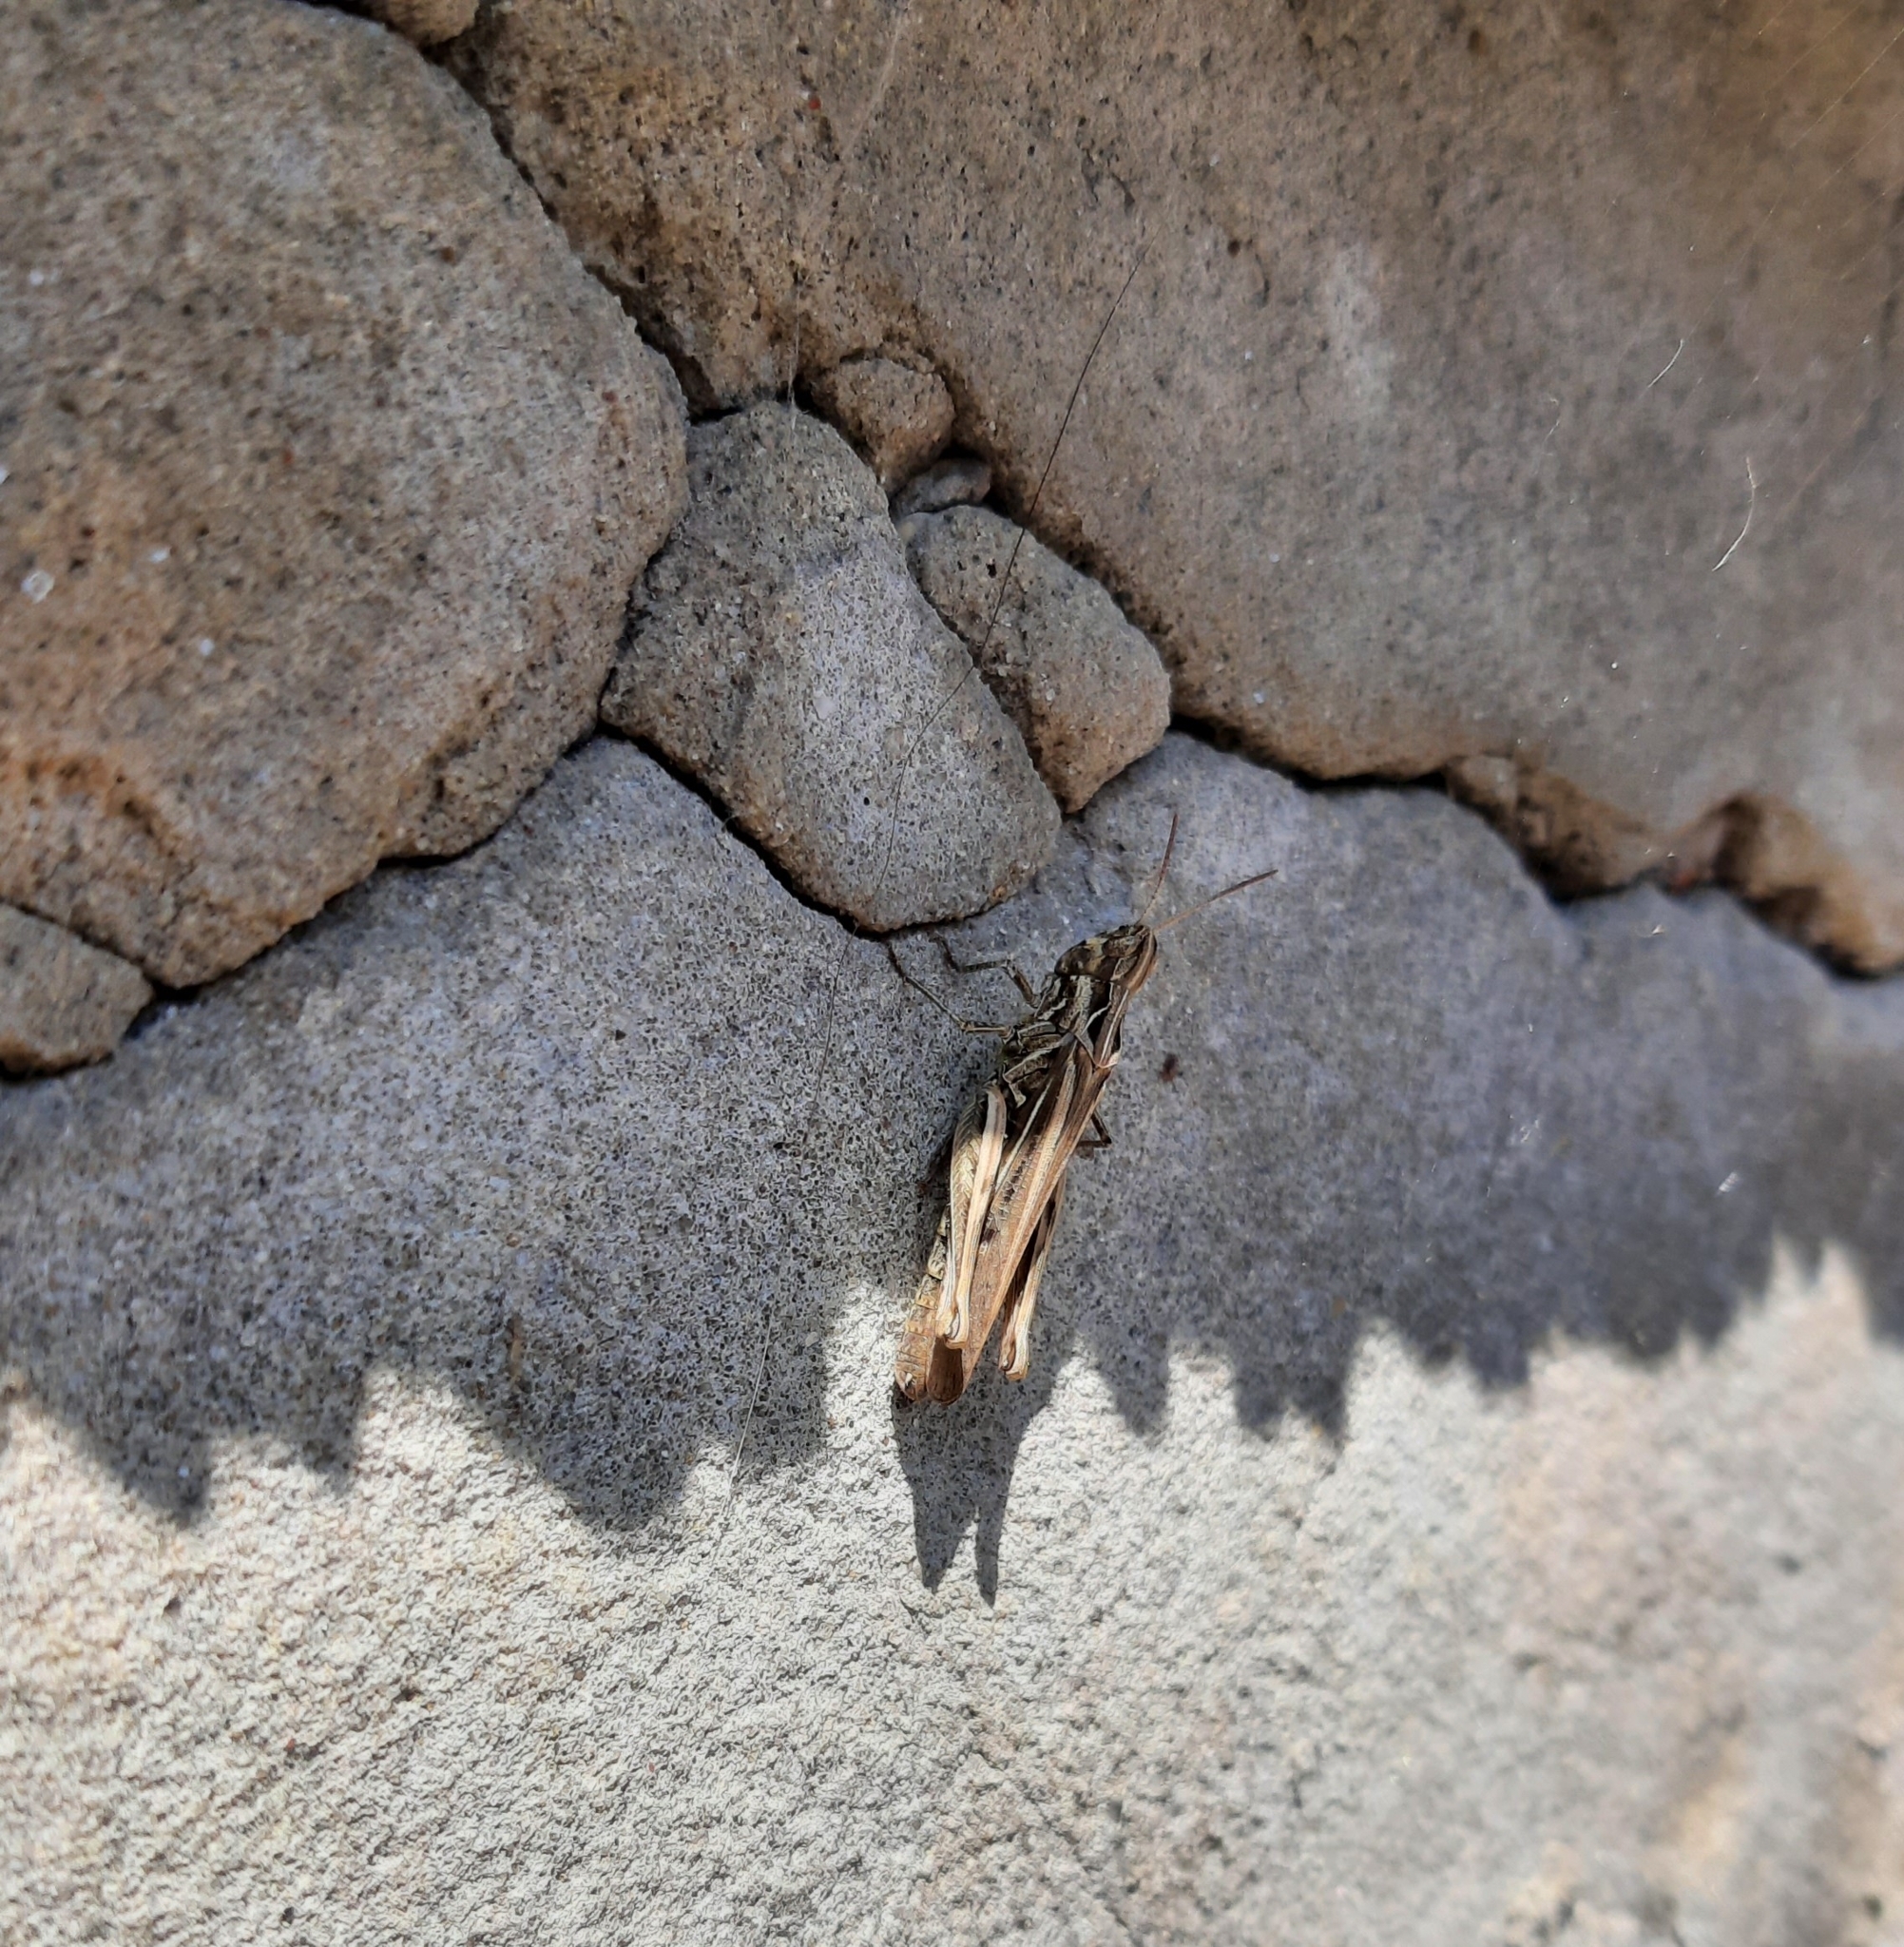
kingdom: Animalia
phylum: Arthropoda
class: Insecta
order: Orthoptera
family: Acrididae
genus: Glyptobothrus
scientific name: Glyptobothrus
